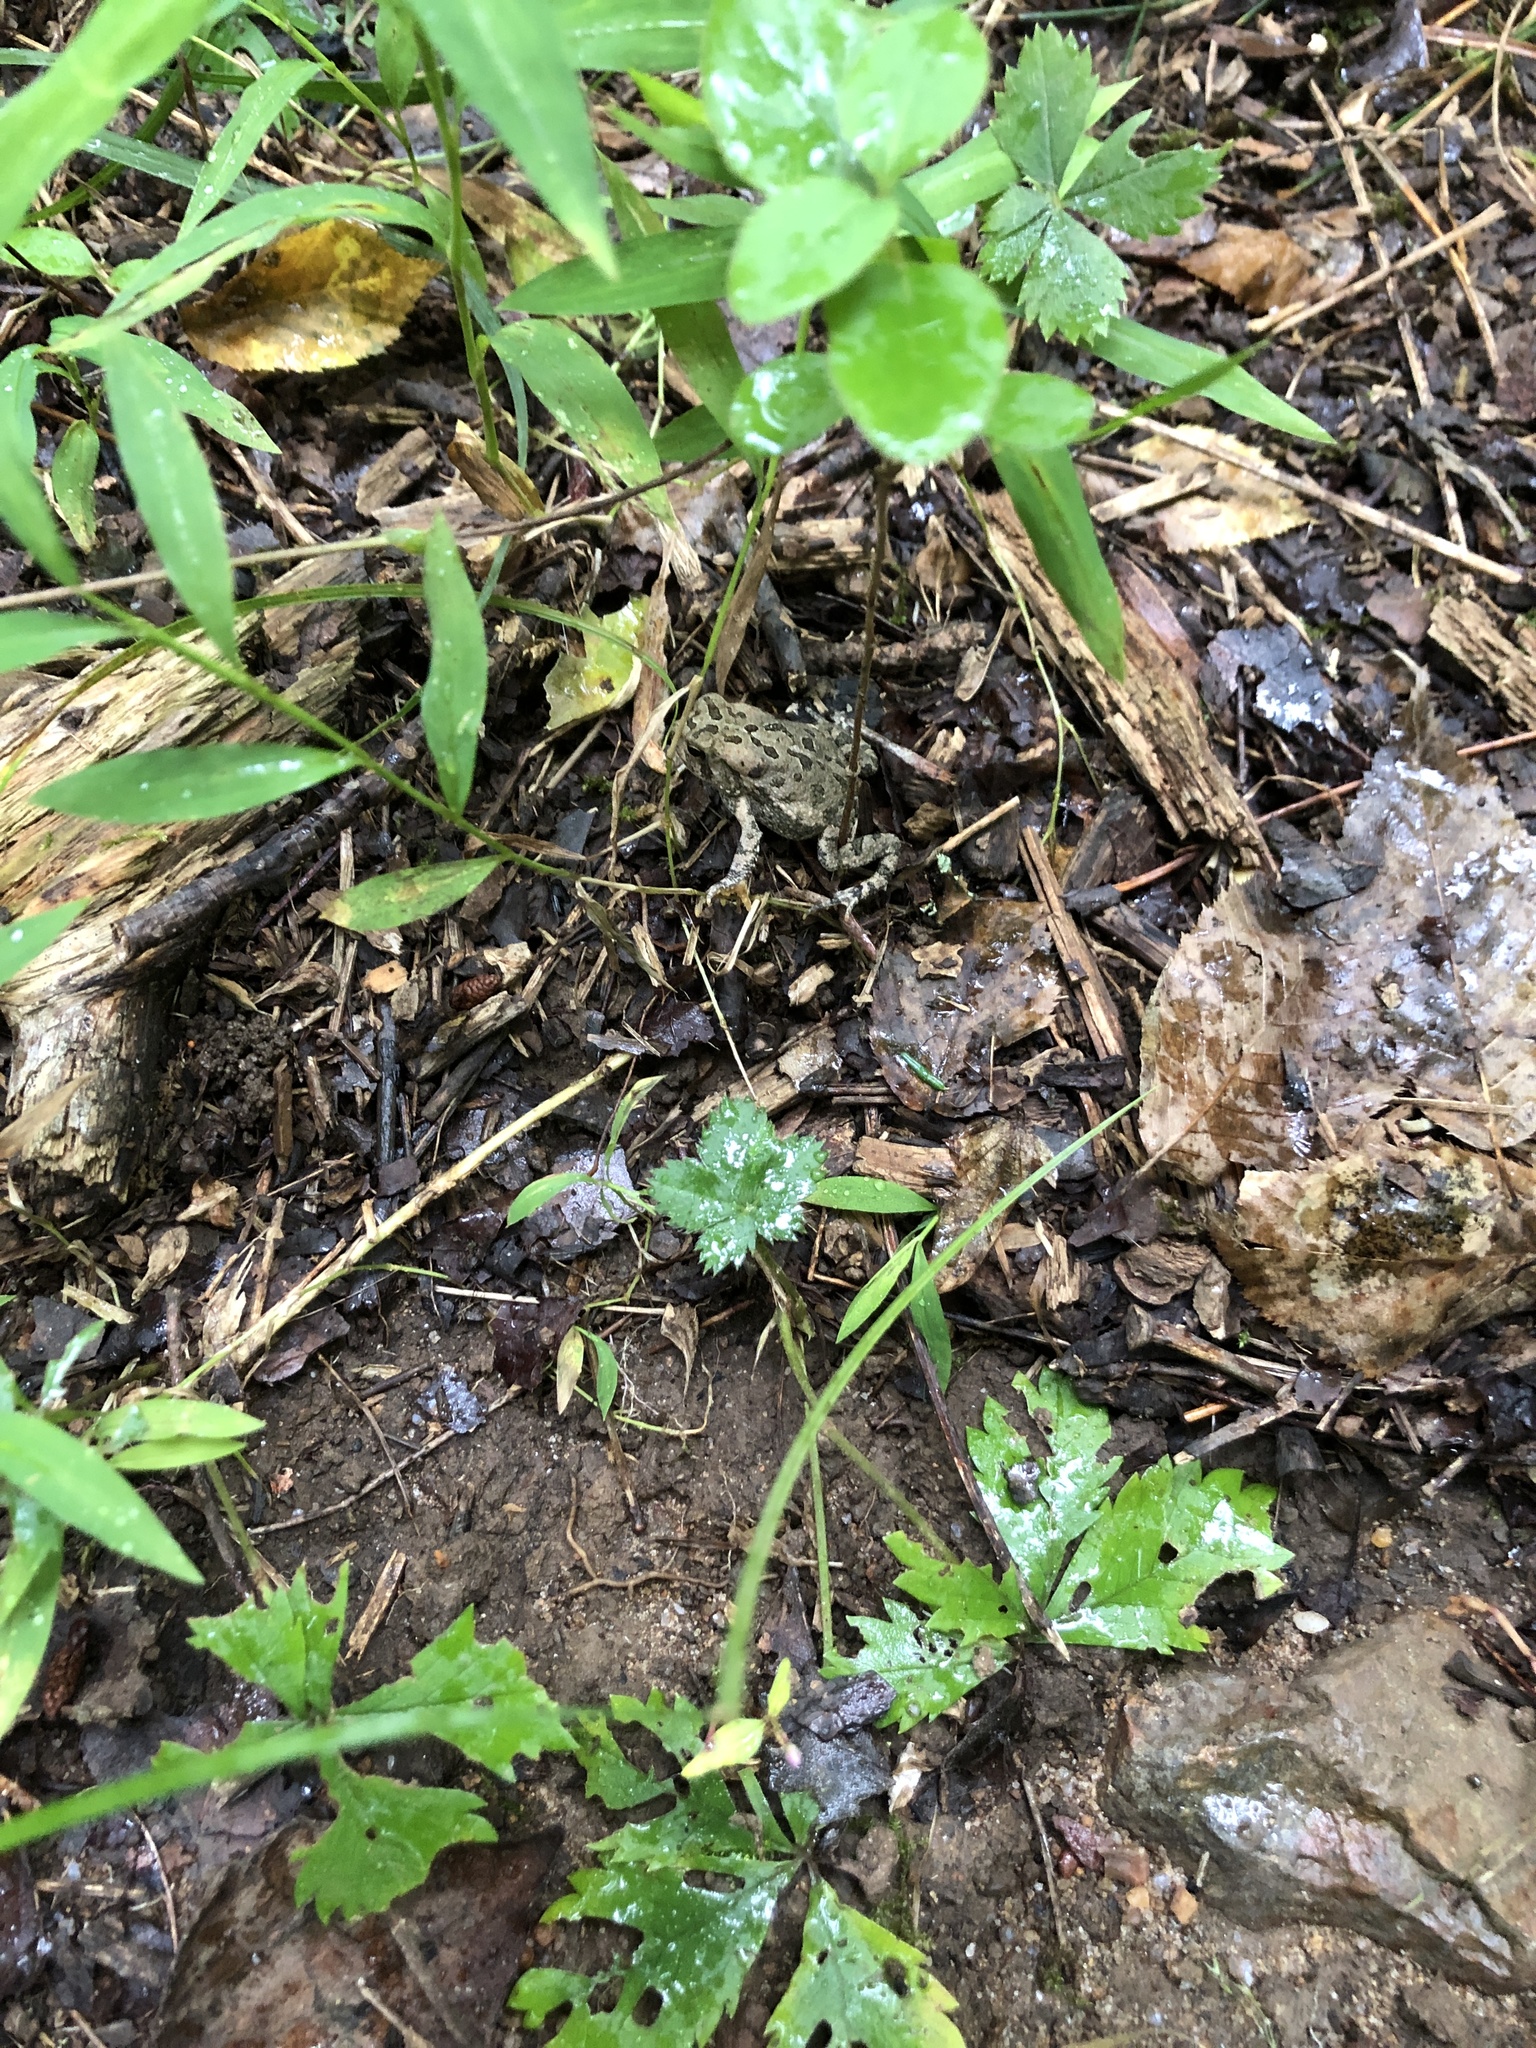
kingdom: Animalia
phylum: Chordata
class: Amphibia
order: Anura
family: Bufonidae
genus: Anaxyrus
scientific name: Anaxyrus fowleri
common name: Fowler's toad
